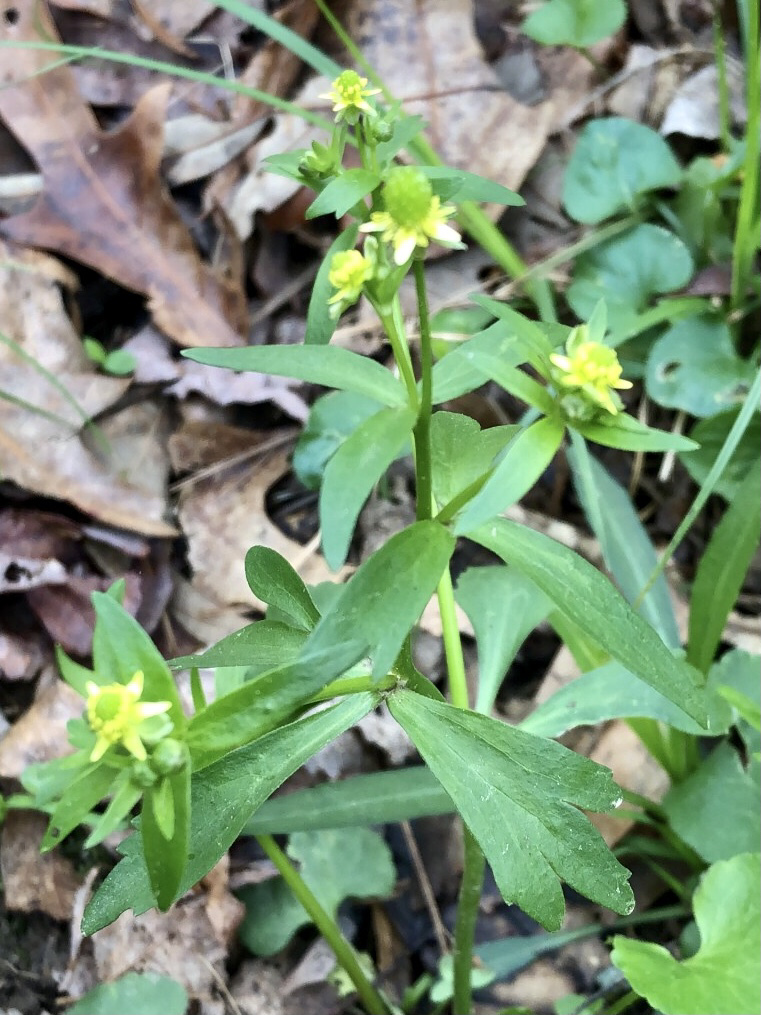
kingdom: Plantae
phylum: Tracheophyta
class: Magnoliopsida
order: Ranunculales
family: Ranunculaceae
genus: Ranunculus
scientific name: Ranunculus abortivus
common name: Early wood buttercup
